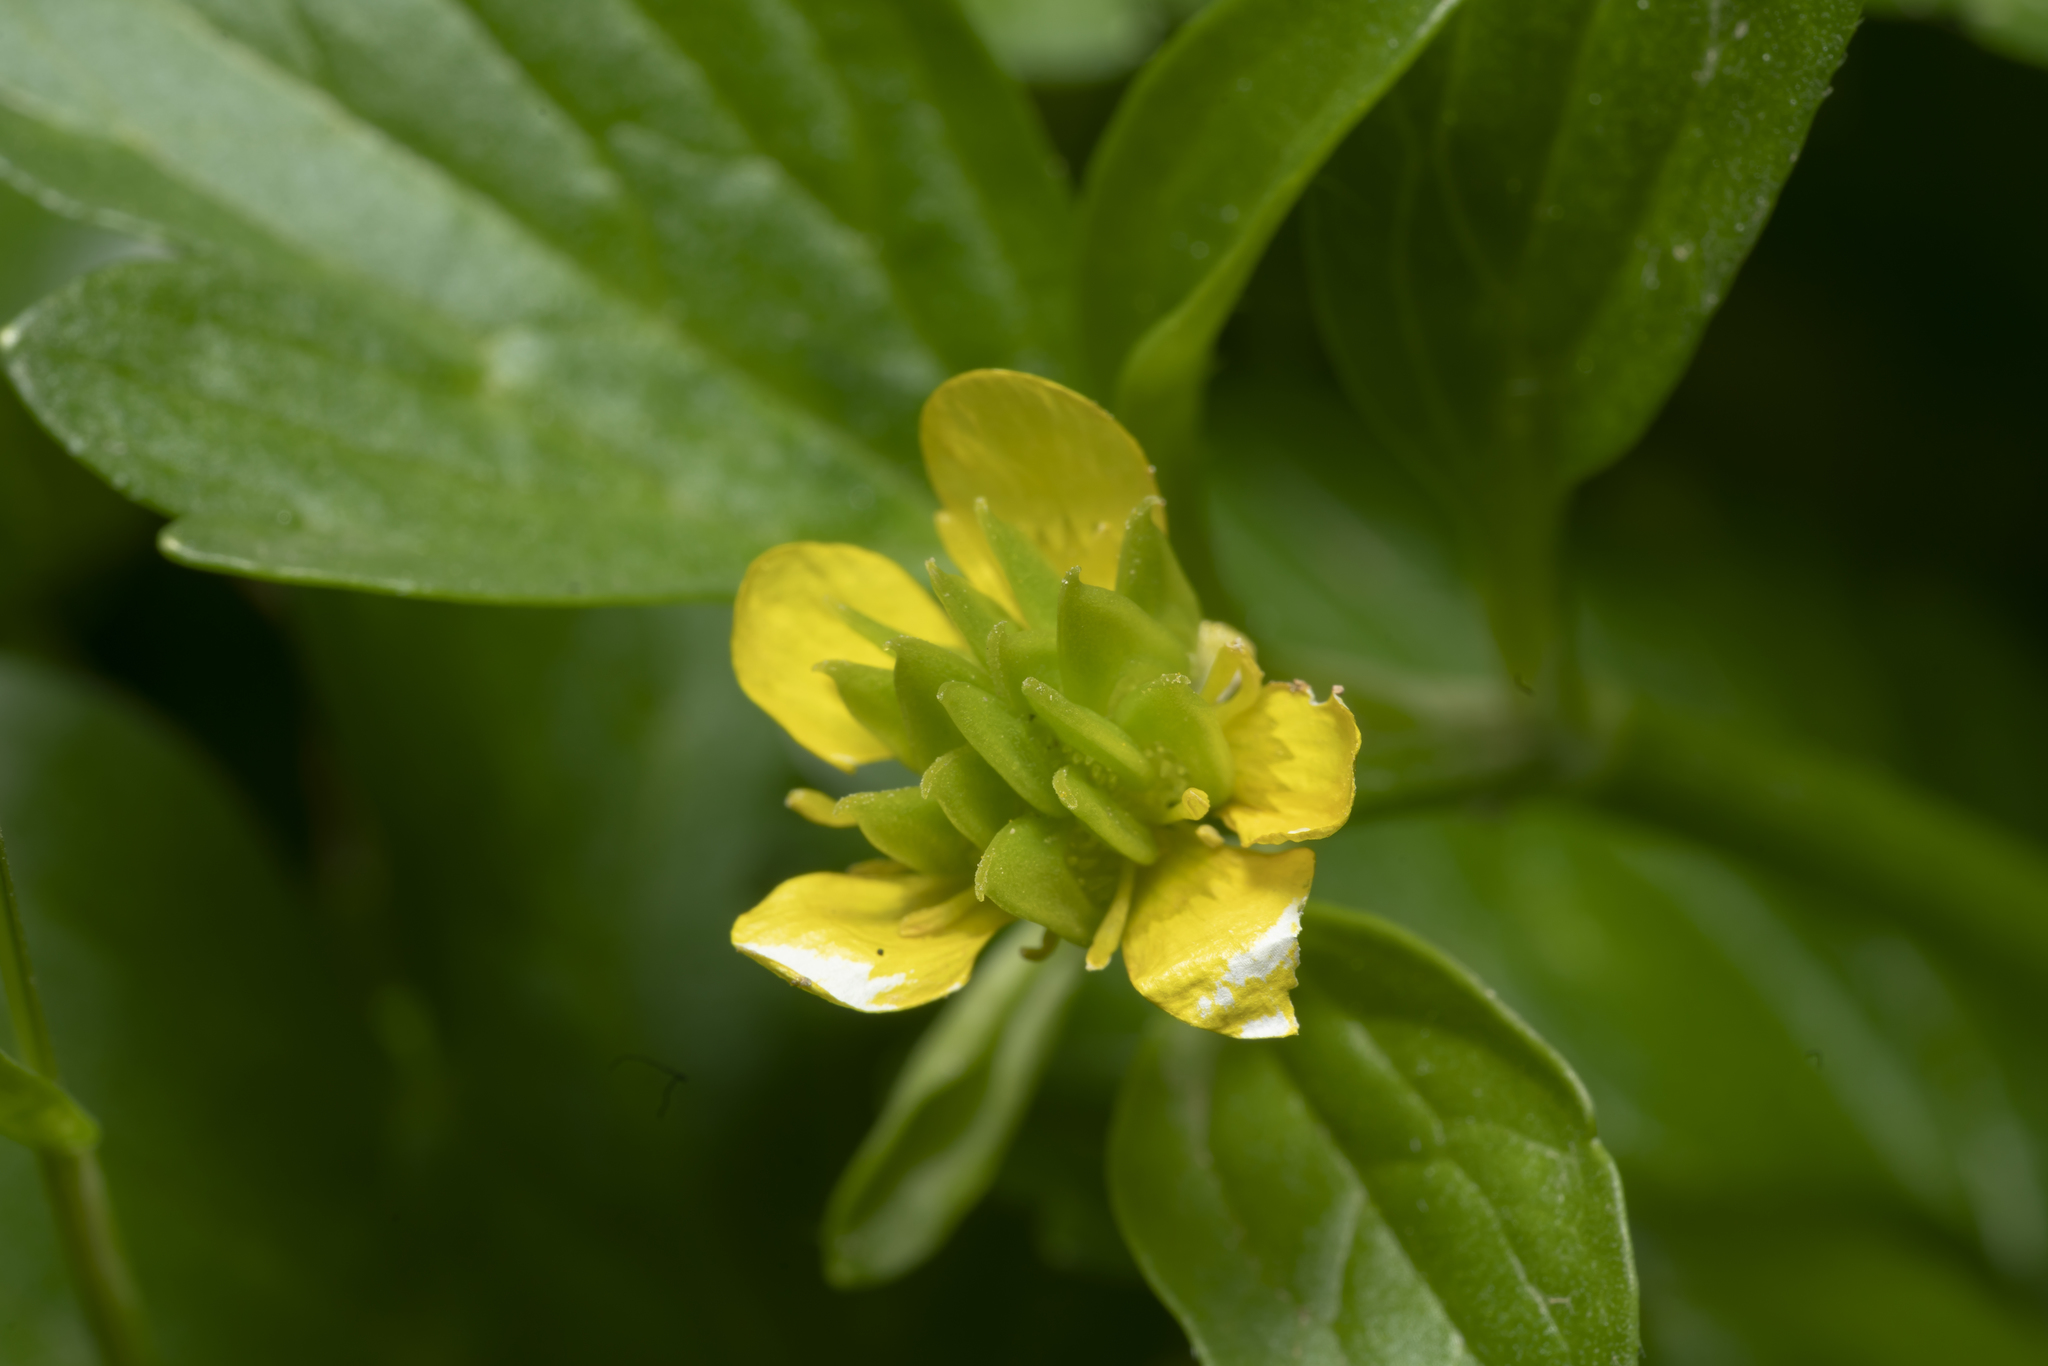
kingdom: Plantae
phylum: Tracheophyta
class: Magnoliopsida
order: Ranunculales
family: Ranunculaceae
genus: Ranunculus
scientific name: Ranunculus muricatus
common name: Rough-fruited buttercup
